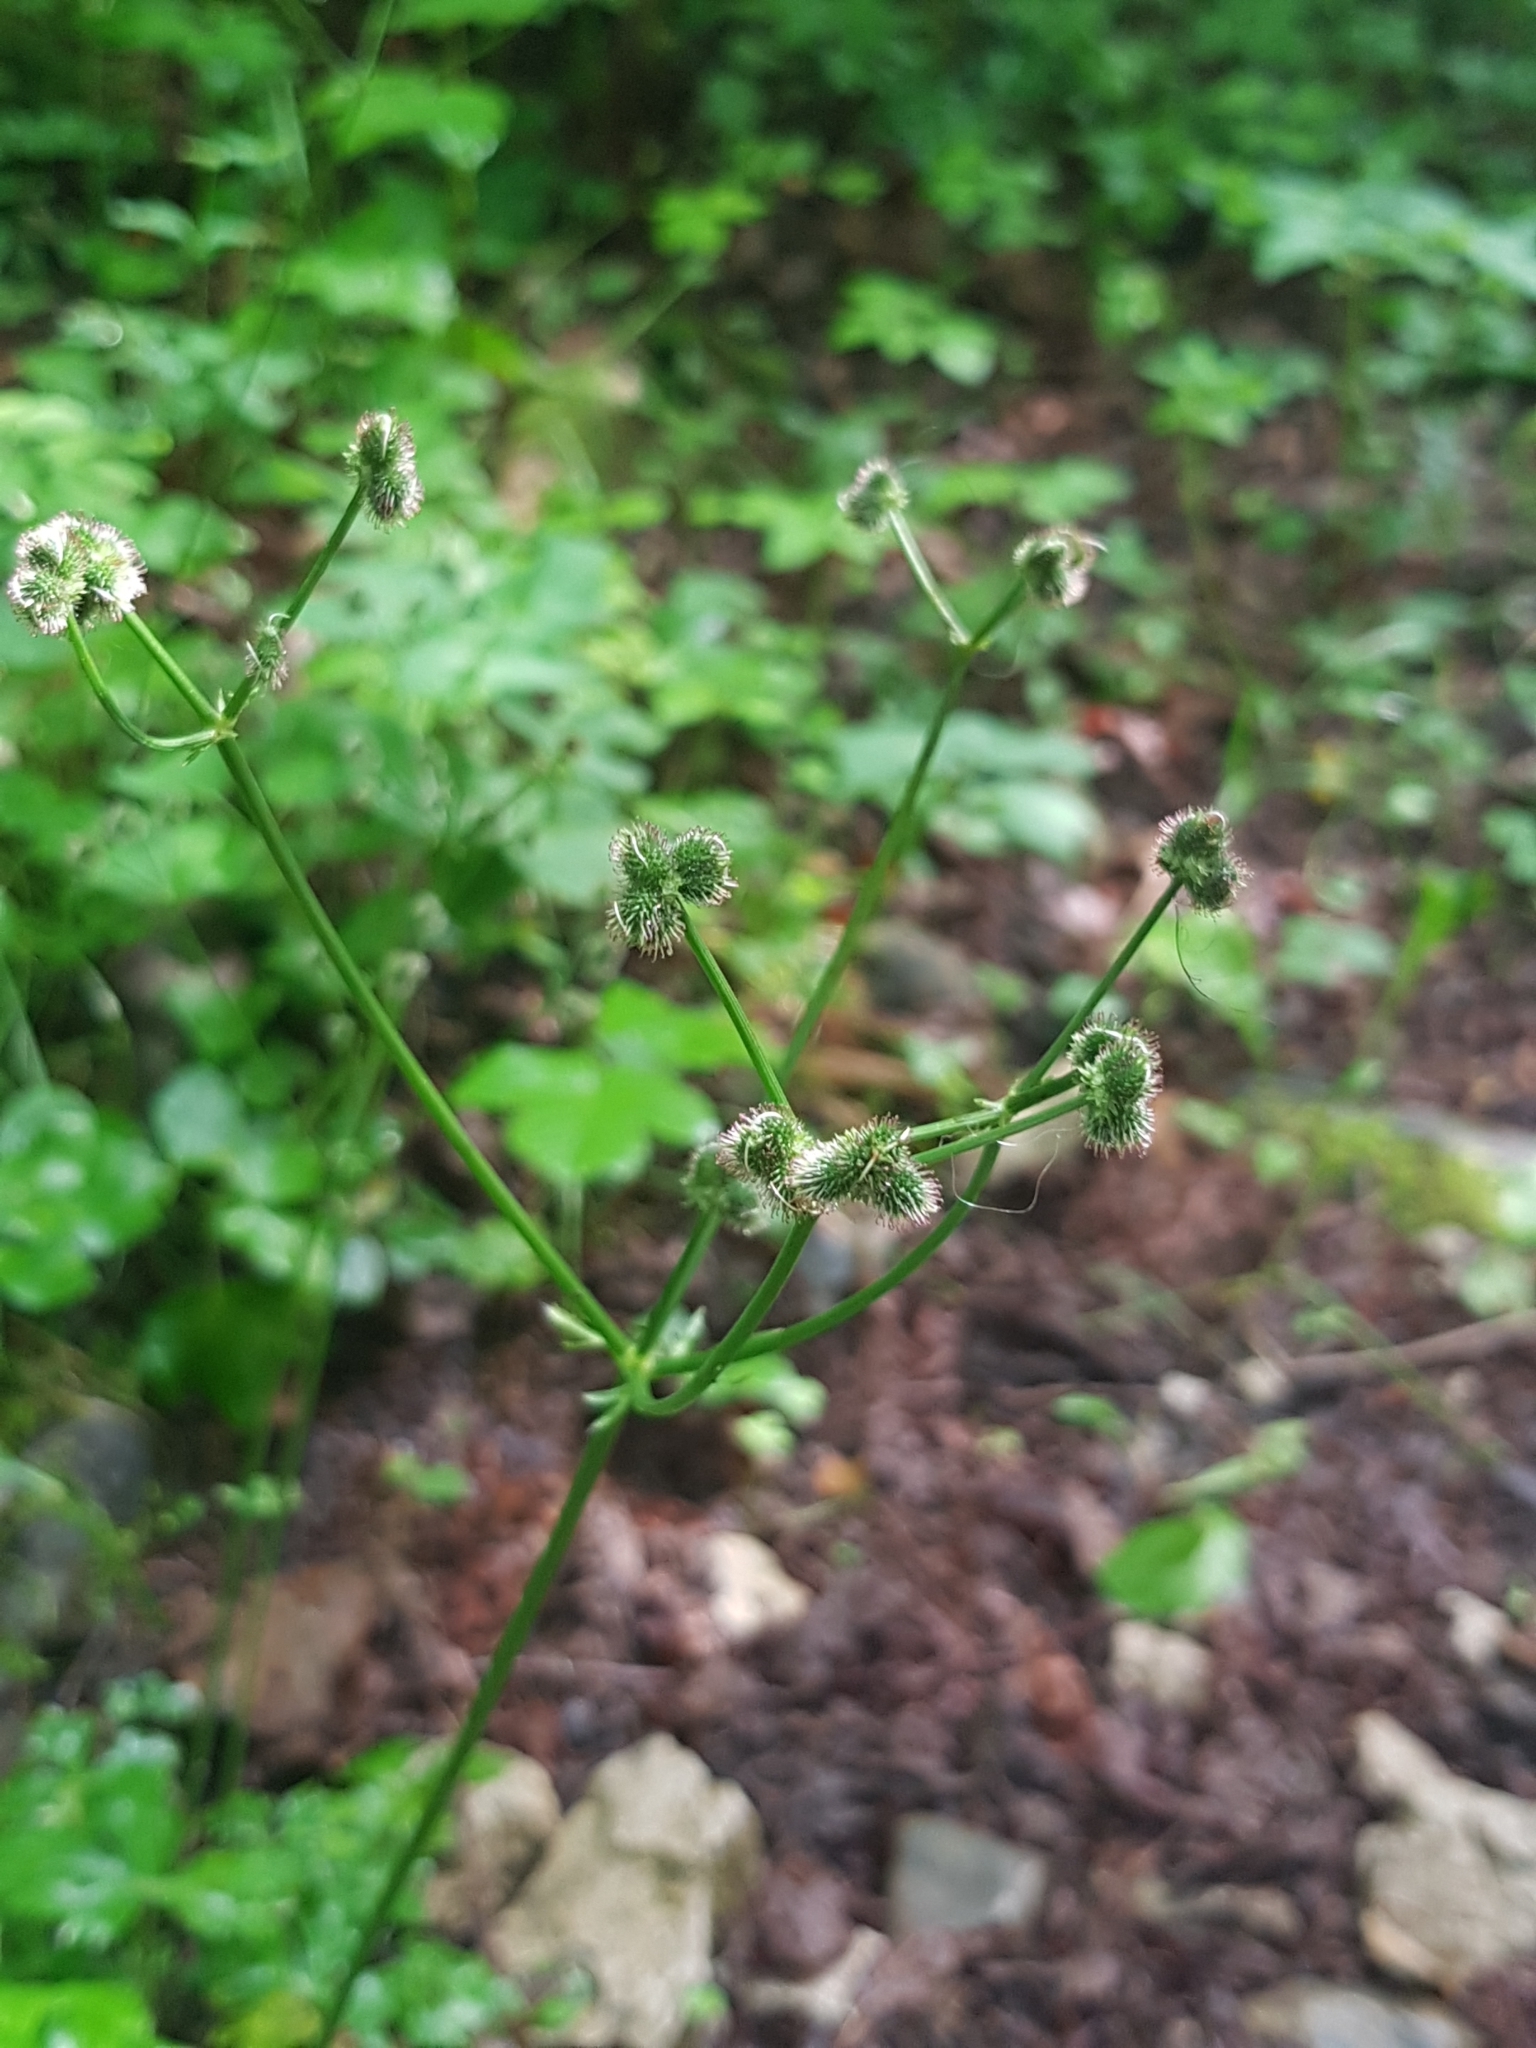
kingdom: Plantae
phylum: Tracheophyta
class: Magnoliopsida
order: Apiales
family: Apiaceae
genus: Sanicula
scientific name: Sanicula europaea
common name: Sanicle
